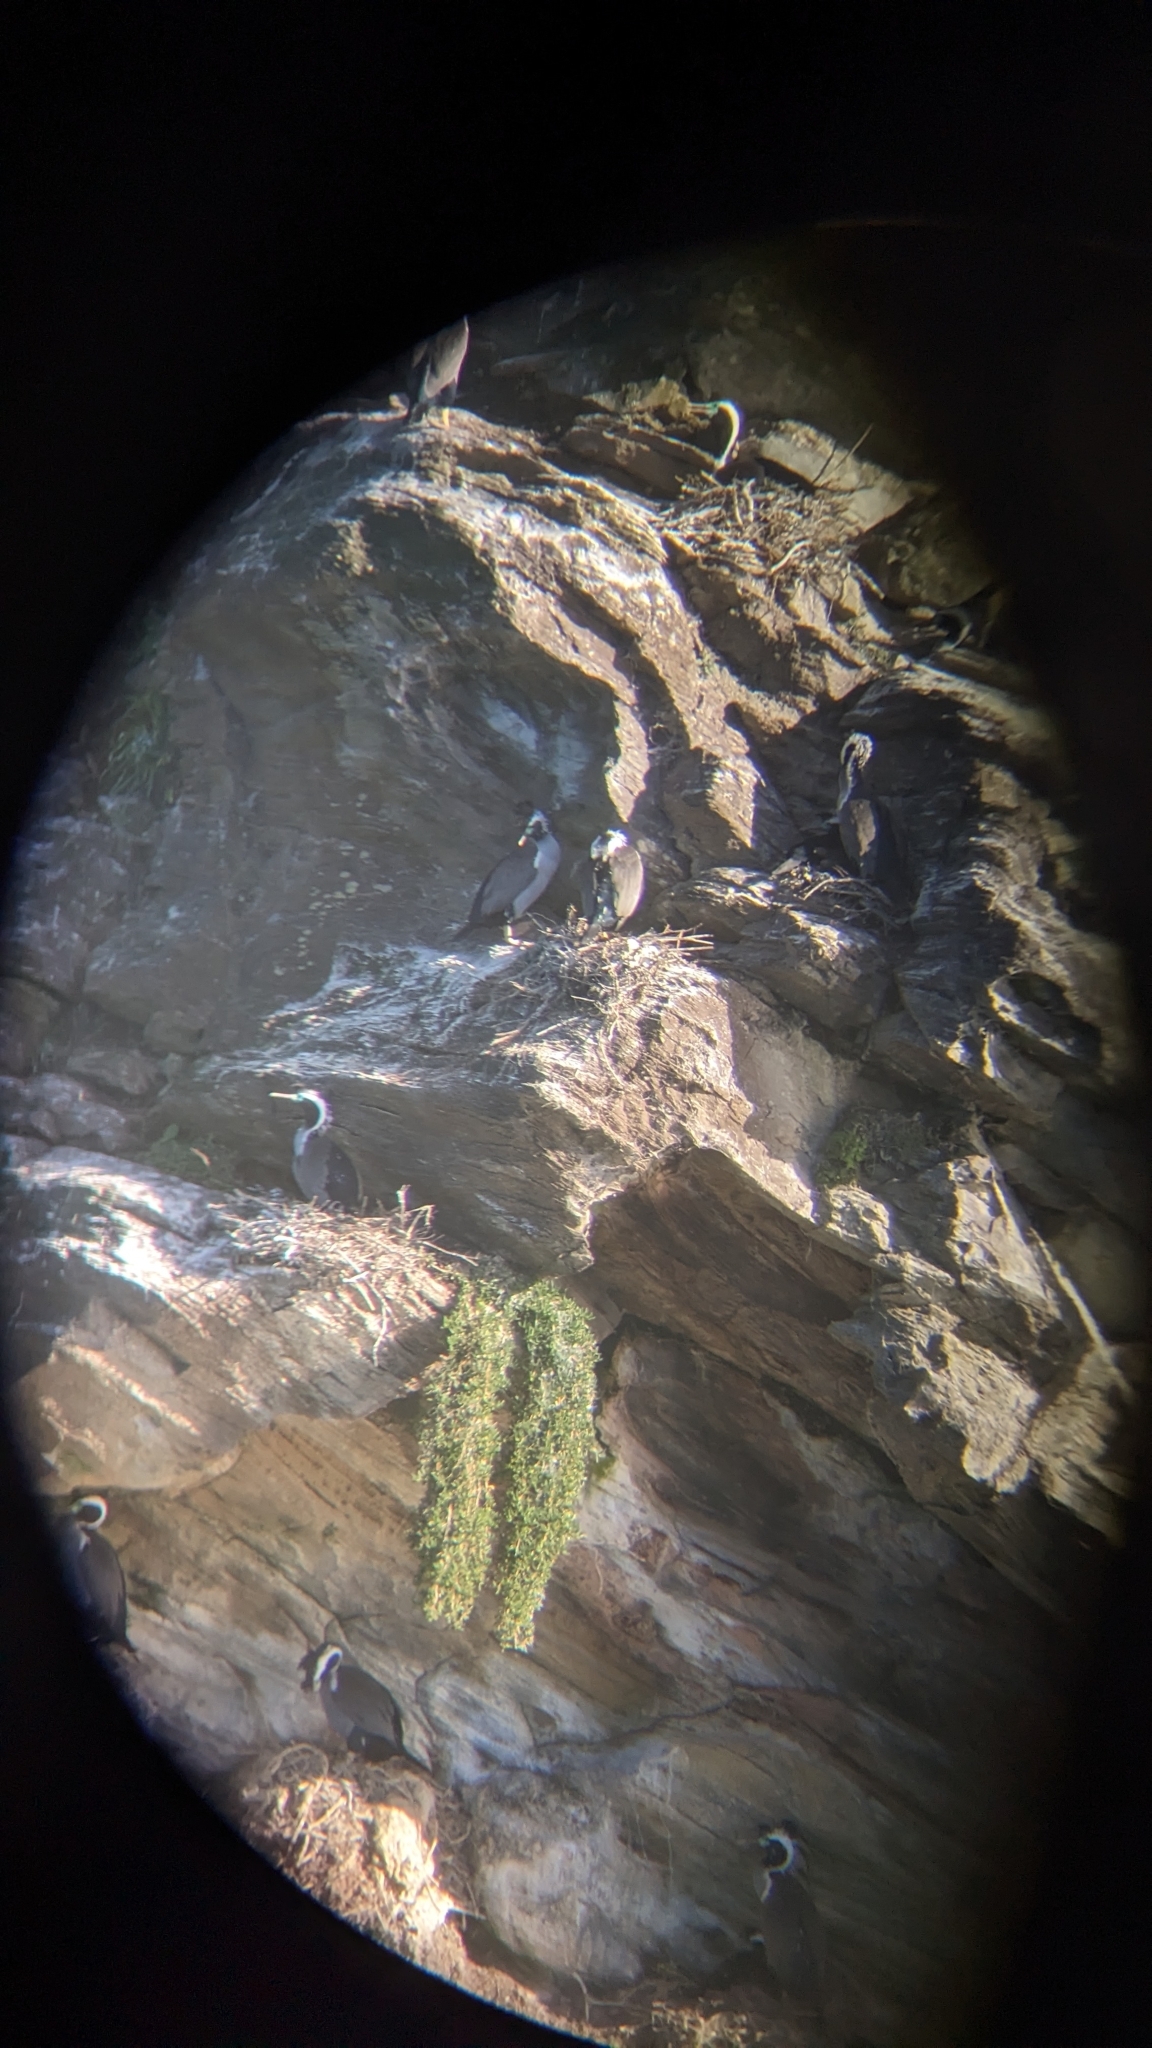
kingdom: Animalia
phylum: Chordata
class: Aves
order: Suliformes
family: Phalacrocoracidae
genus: Phalacrocorax
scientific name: Phalacrocorax punctatus
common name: Spotted shag
